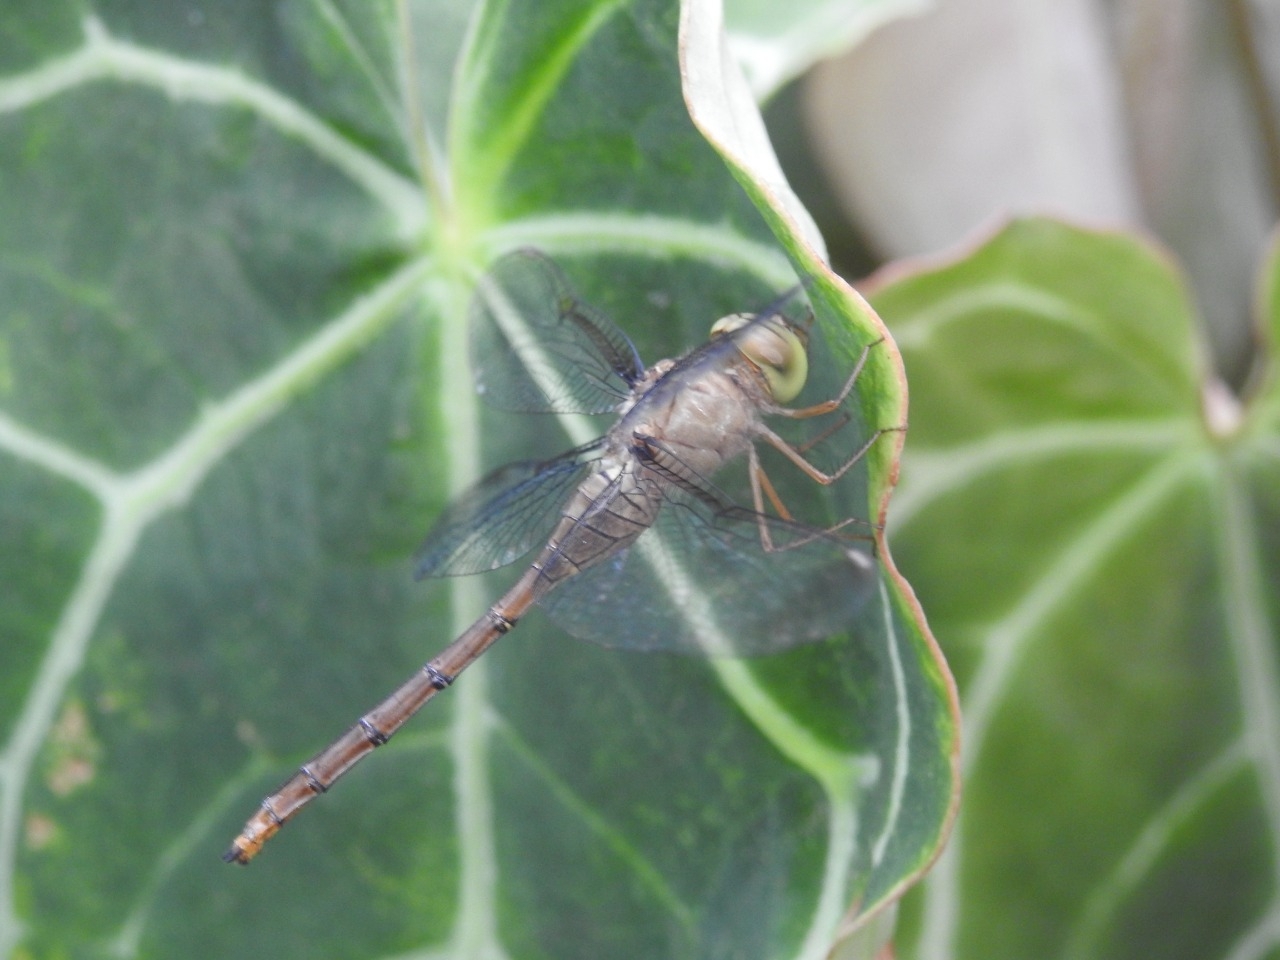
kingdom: Animalia
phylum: Arthropoda
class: Insecta
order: Odonata
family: Libellulidae
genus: Zyxomma
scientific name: Zyxomma obtusum
